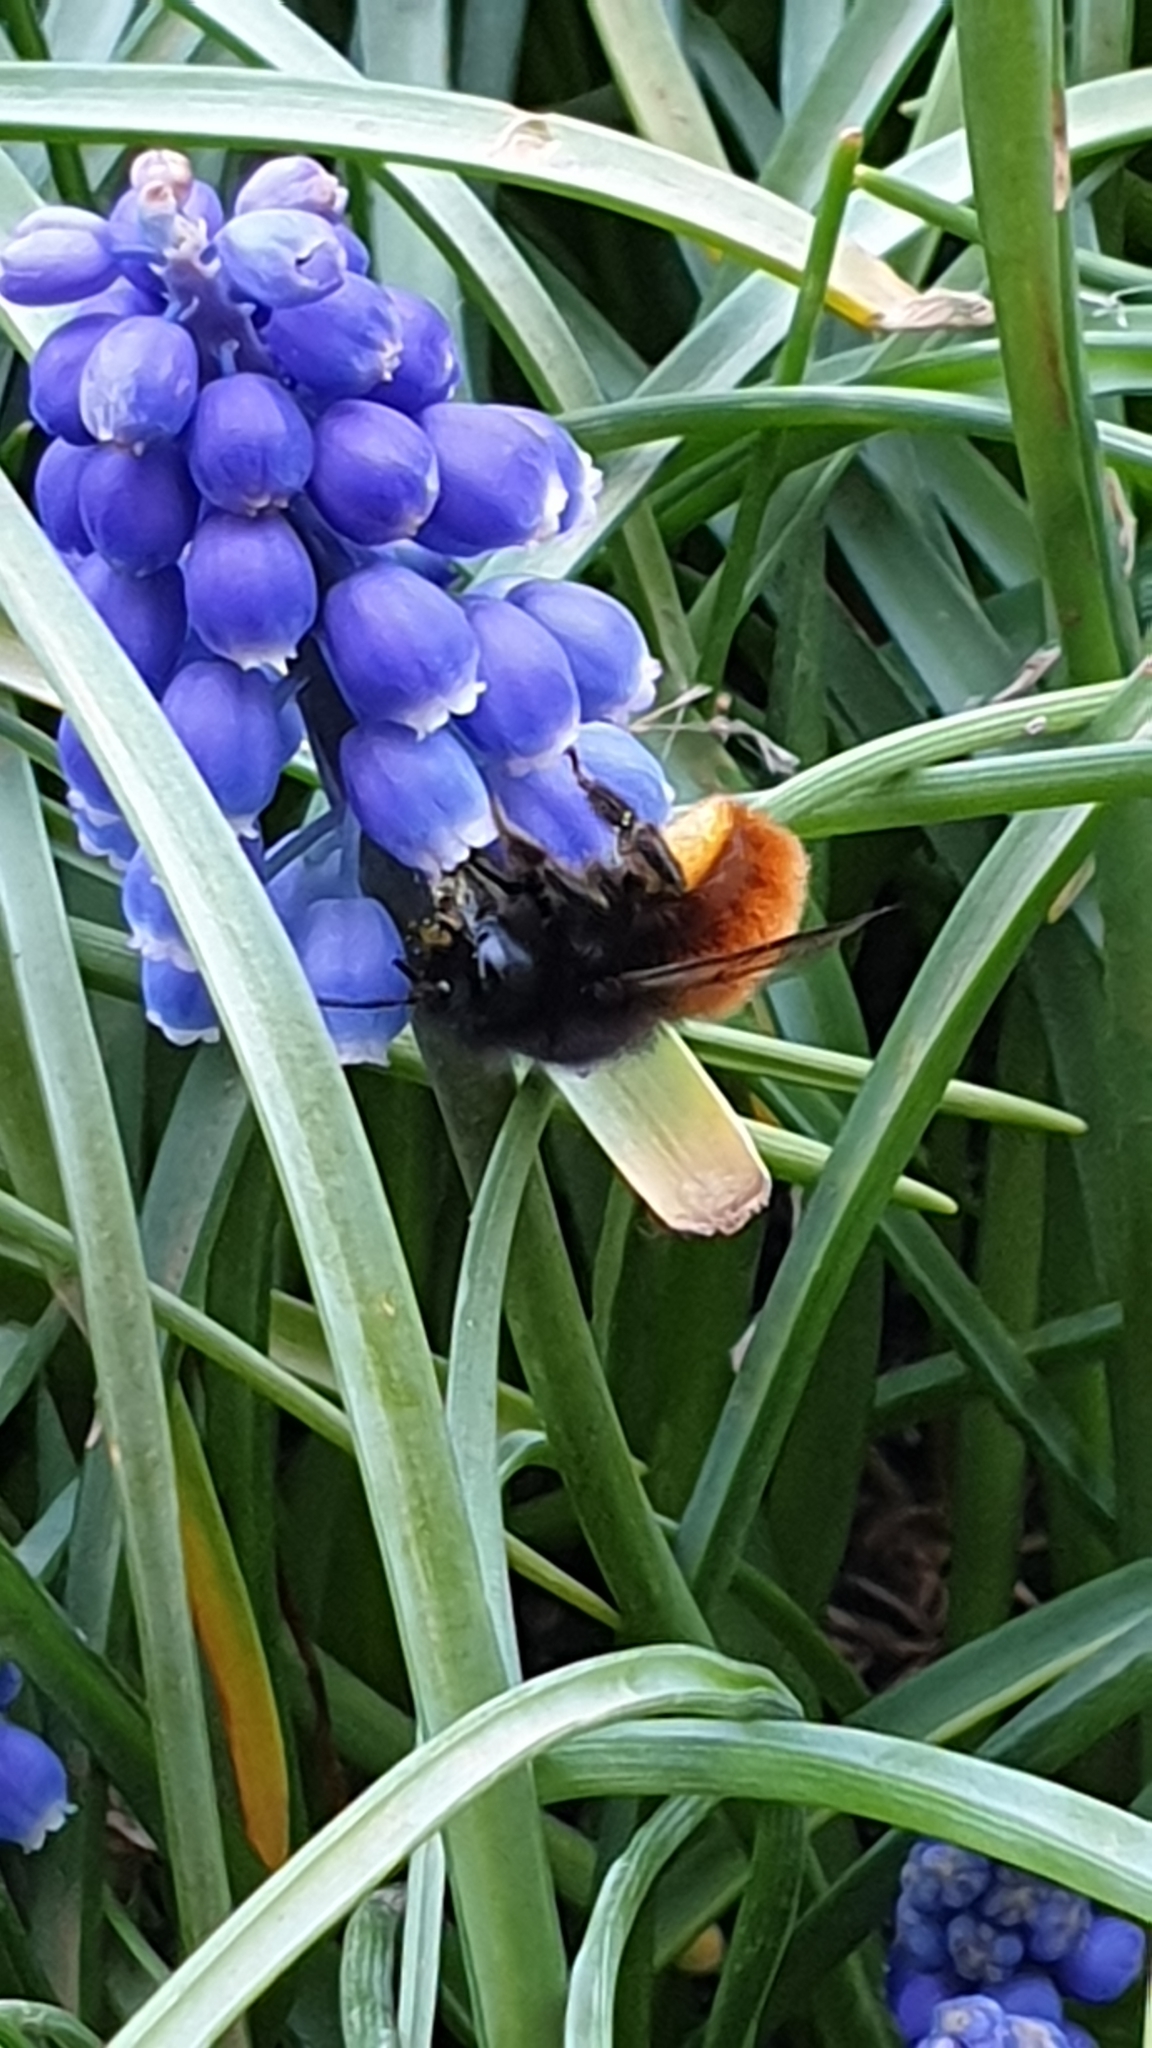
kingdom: Animalia
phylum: Arthropoda
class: Insecta
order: Hymenoptera
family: Megachilidae
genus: Osmia
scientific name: Osmia cornuta
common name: Mason bee
